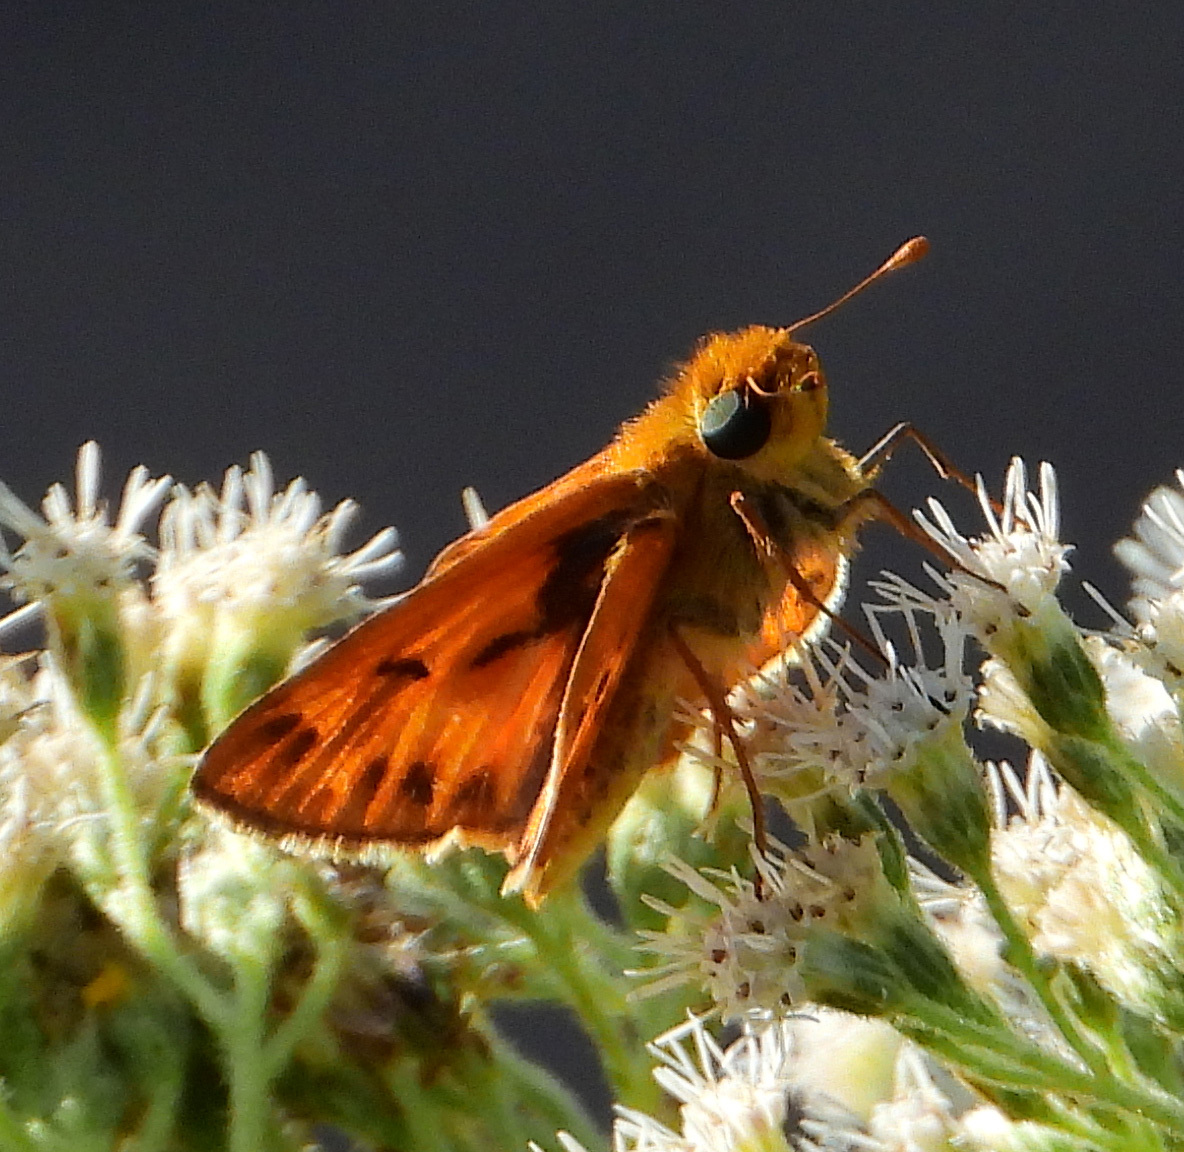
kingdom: Animalia
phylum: Arthropoda
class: Insecta
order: Lepidoptera
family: Hesperiidae
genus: Hylephila
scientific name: Hylephila phyleus
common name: Fiery skipper
